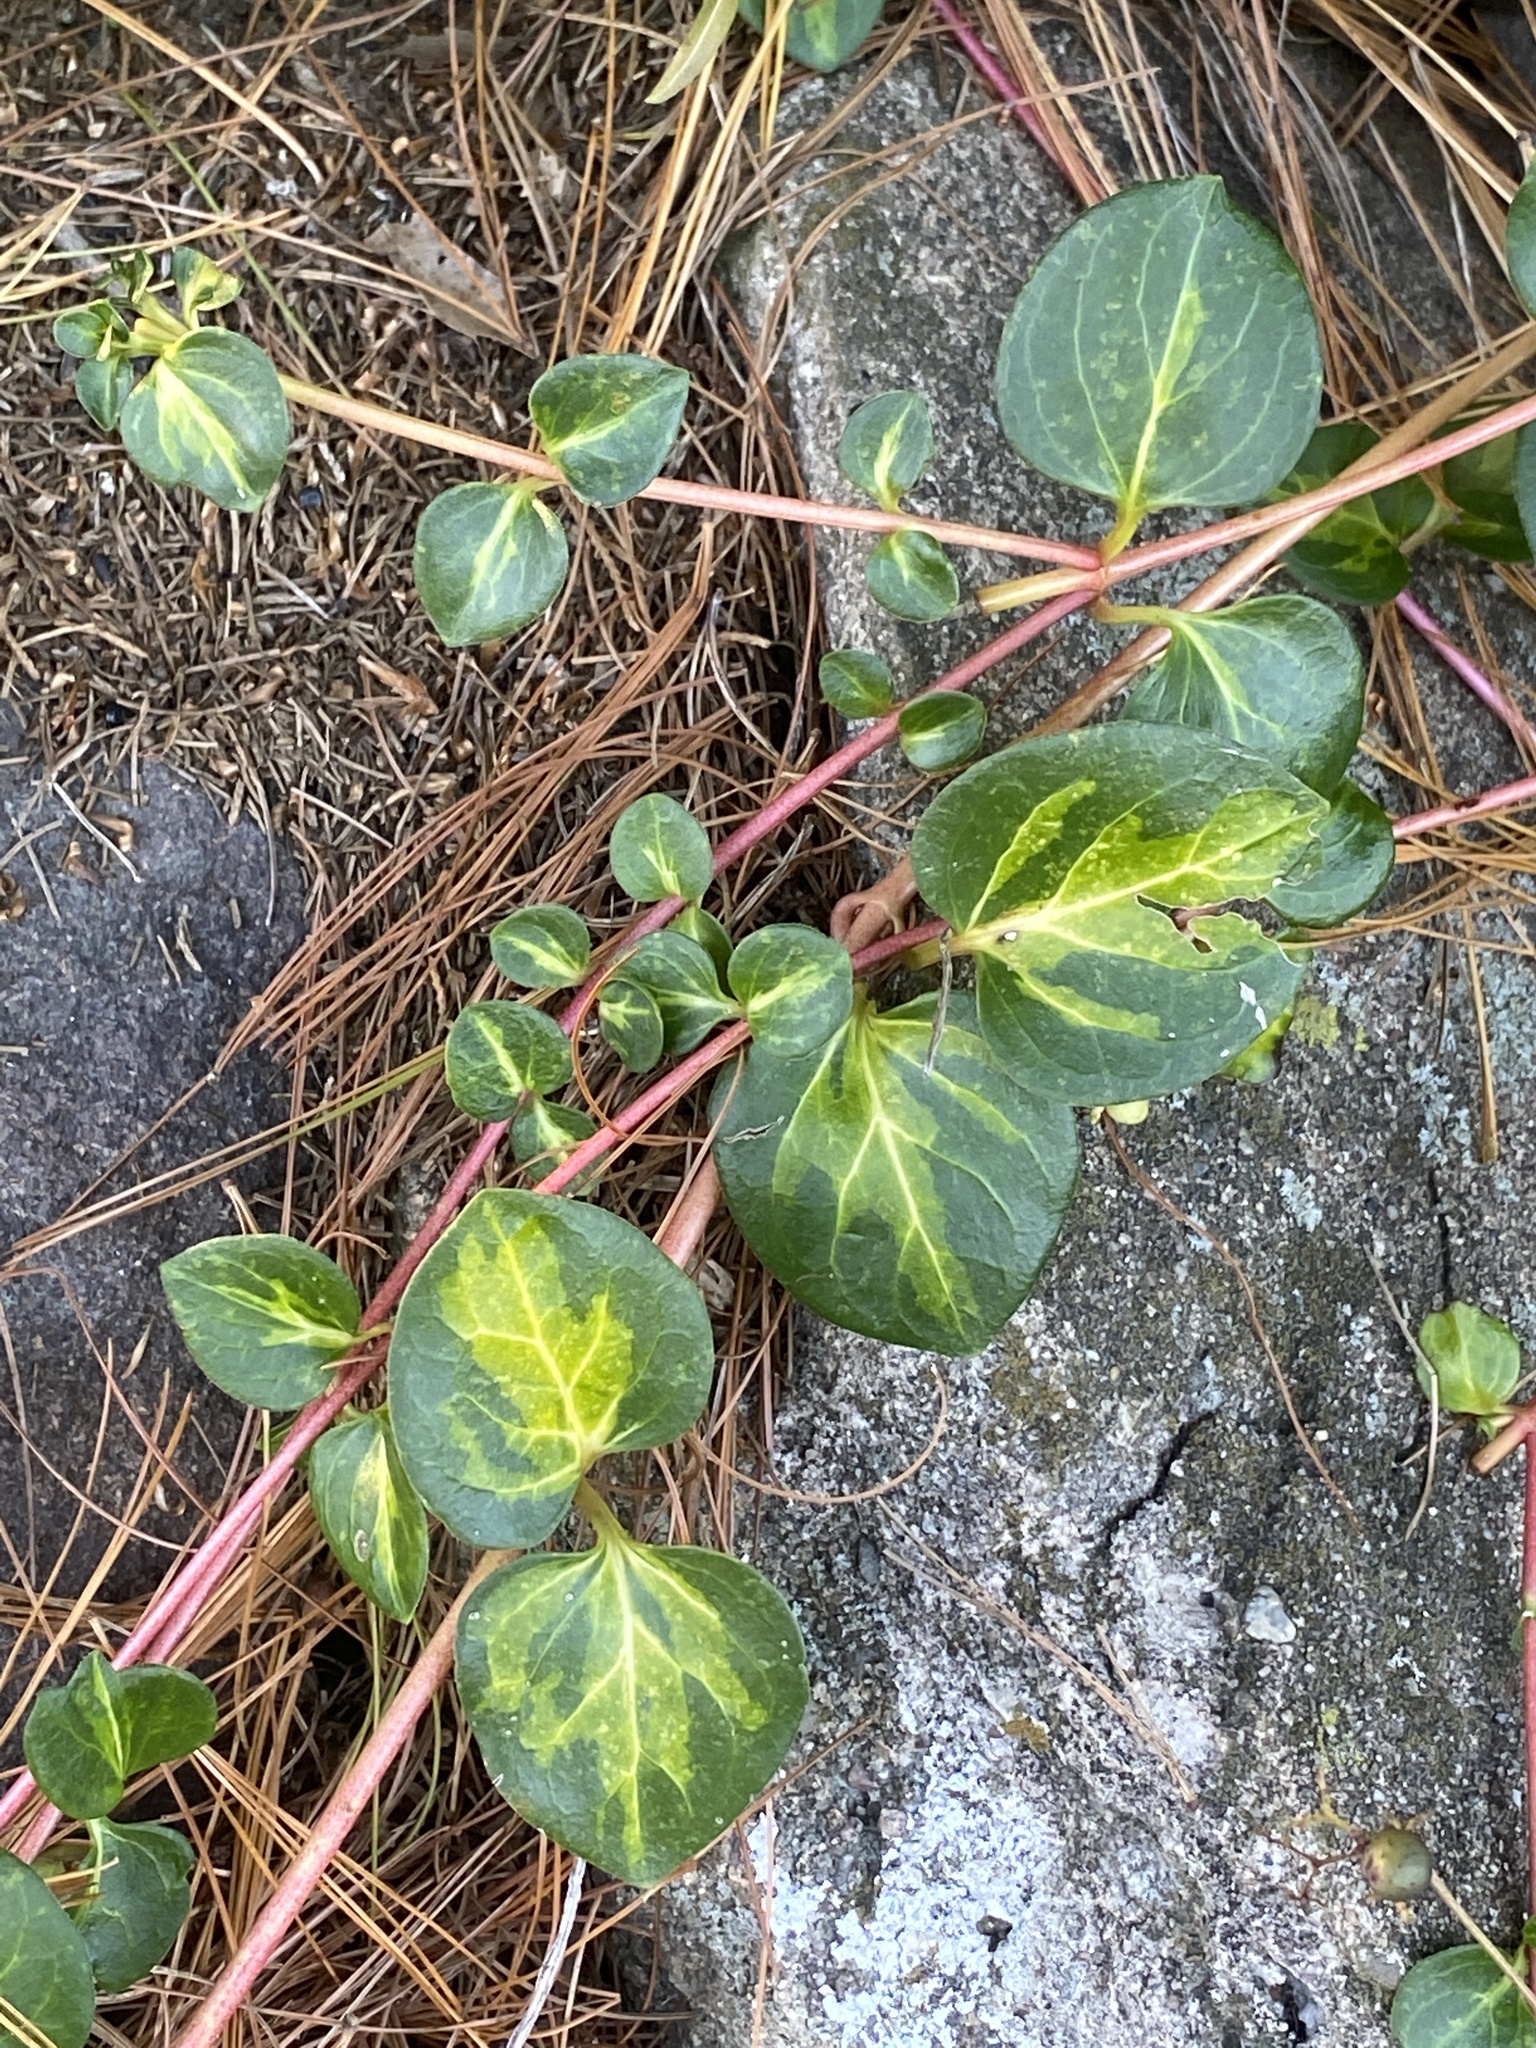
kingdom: Plantae
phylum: Tracheophyta
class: Magnoliopsida
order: Gentianales
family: Apocynaceae
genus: Vinca
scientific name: Vinca major
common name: Greater periwinkle
